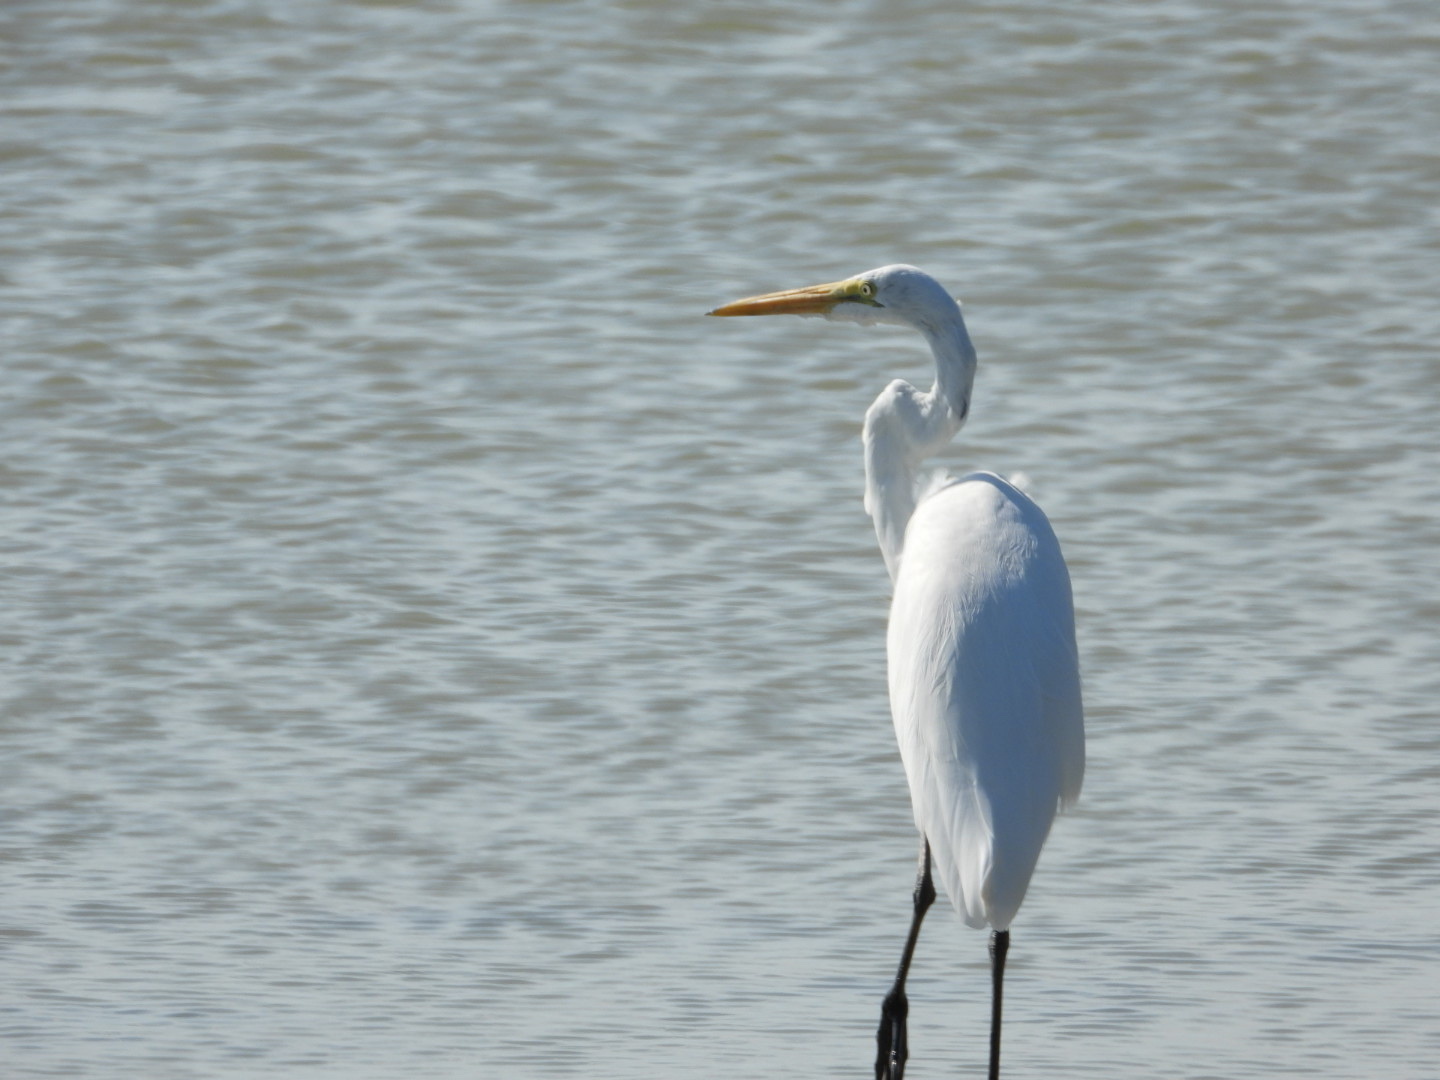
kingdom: Animalia
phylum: Chordata
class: Aves
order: Pelecaniformes
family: Ardeidae
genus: Ardea
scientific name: Ardea alba
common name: Great egret
